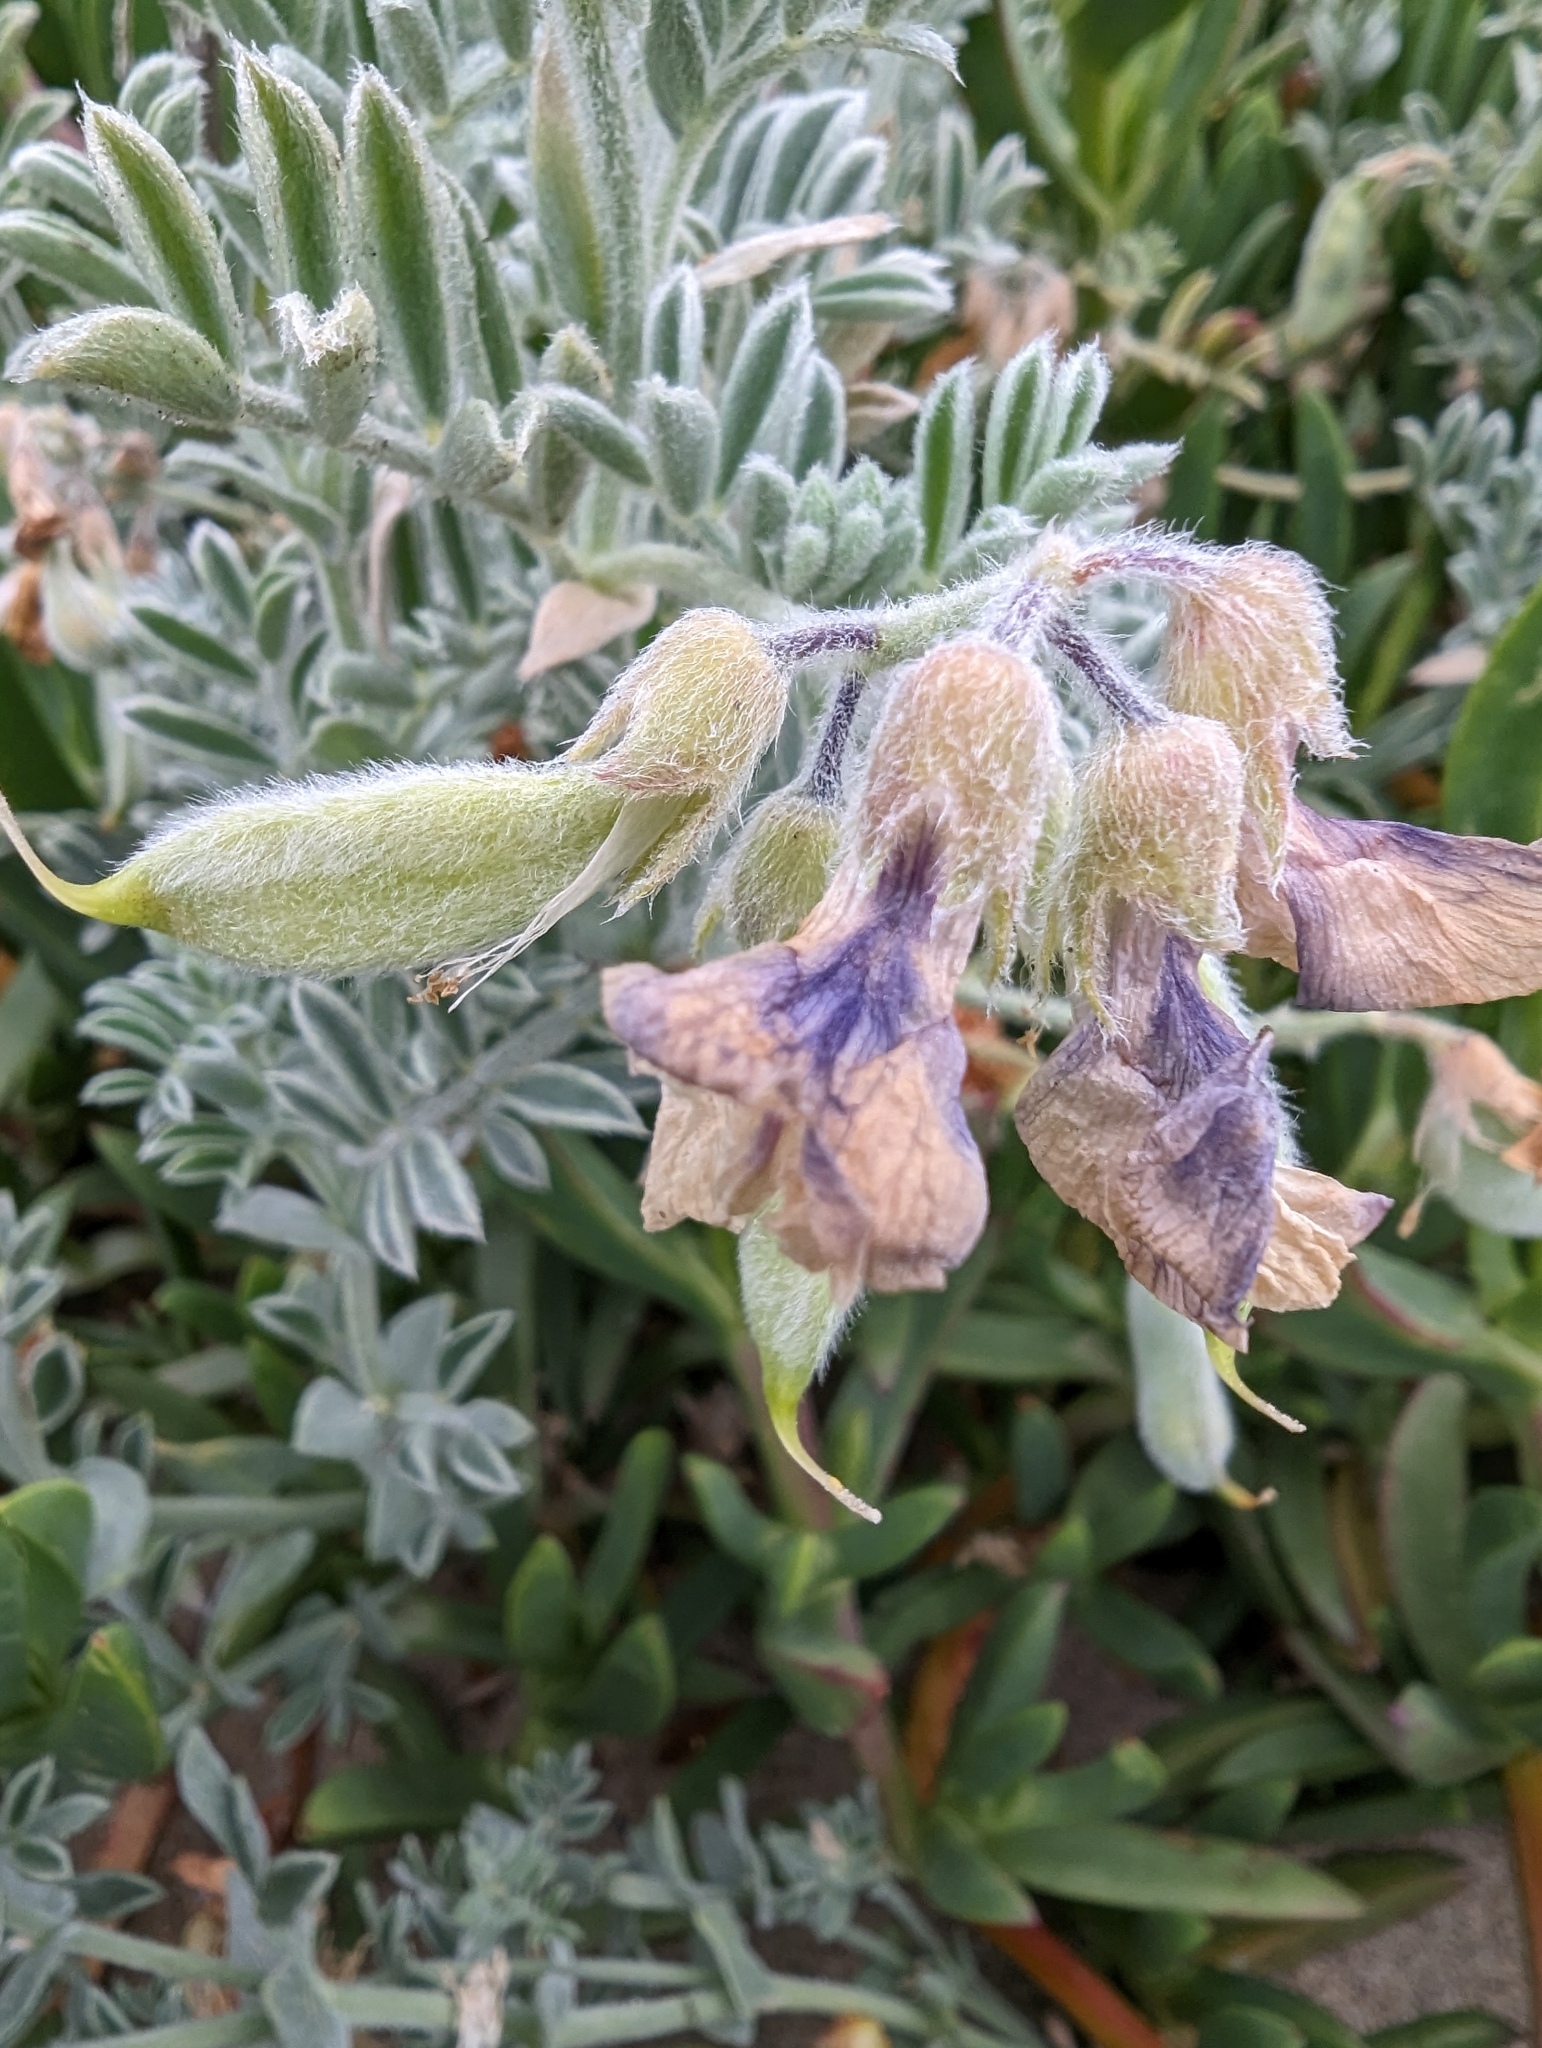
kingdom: Plantae
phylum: Tracheophyta
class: Magnoliopsida
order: Fabales
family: Fabaceae
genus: Lathyrus
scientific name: Lathyrus littoralis
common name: Dune sweet pea
